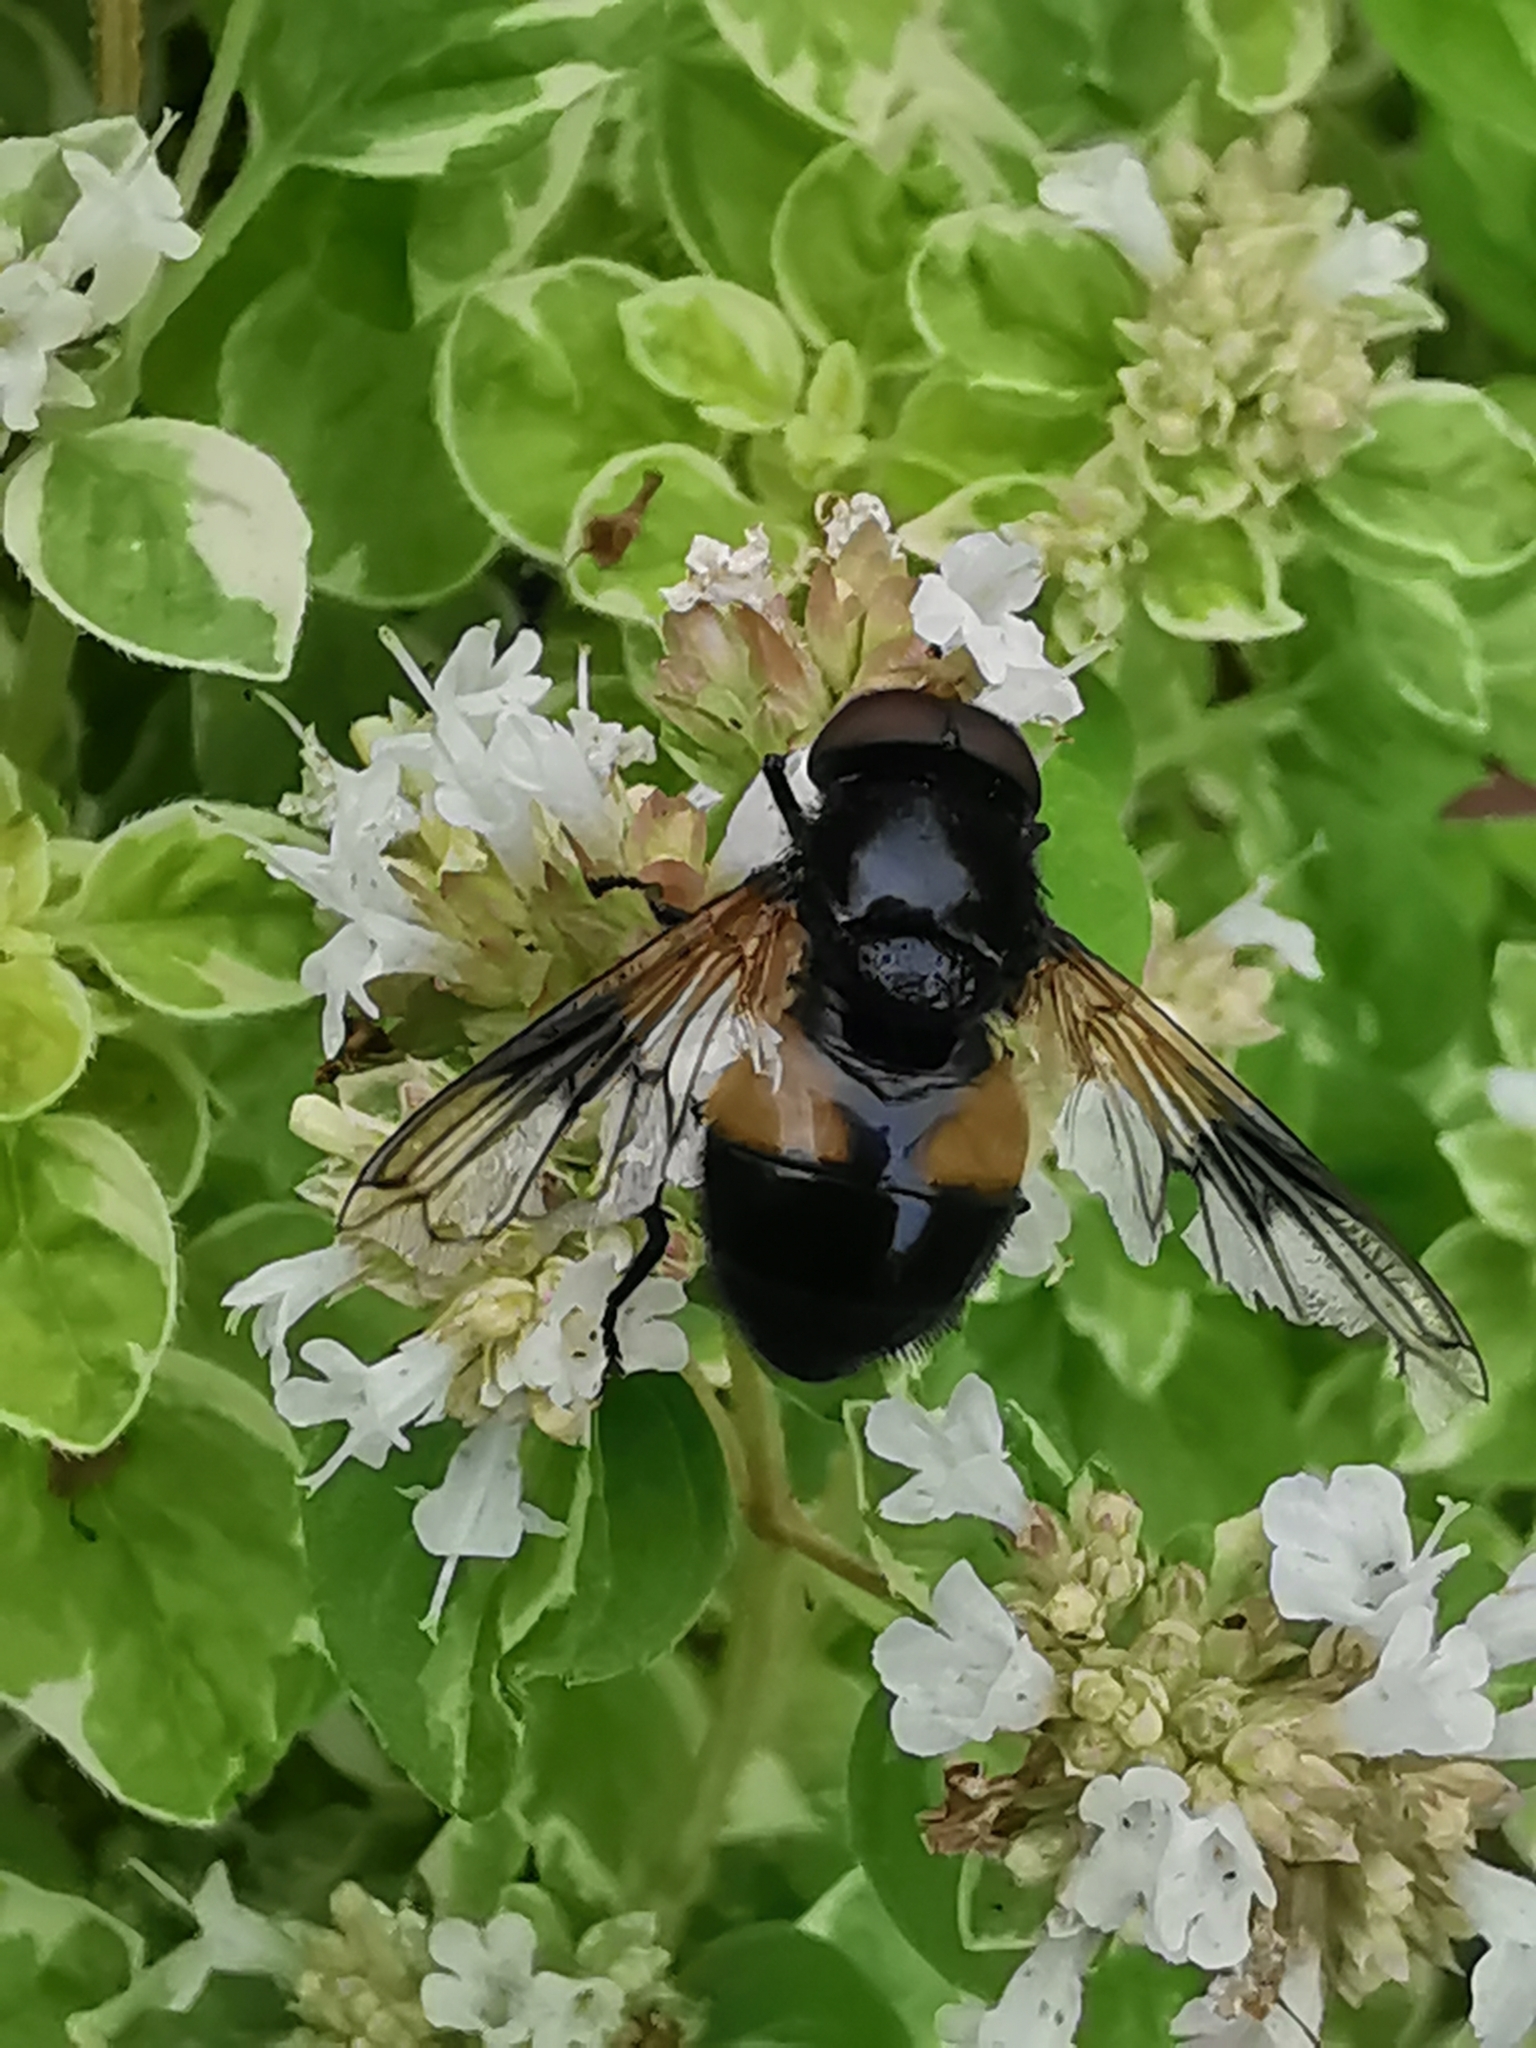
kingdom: Animalia
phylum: Arthropoda
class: Insecta
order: Diptera
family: Syrphidae
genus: Volucella
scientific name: Volucella pellucens
